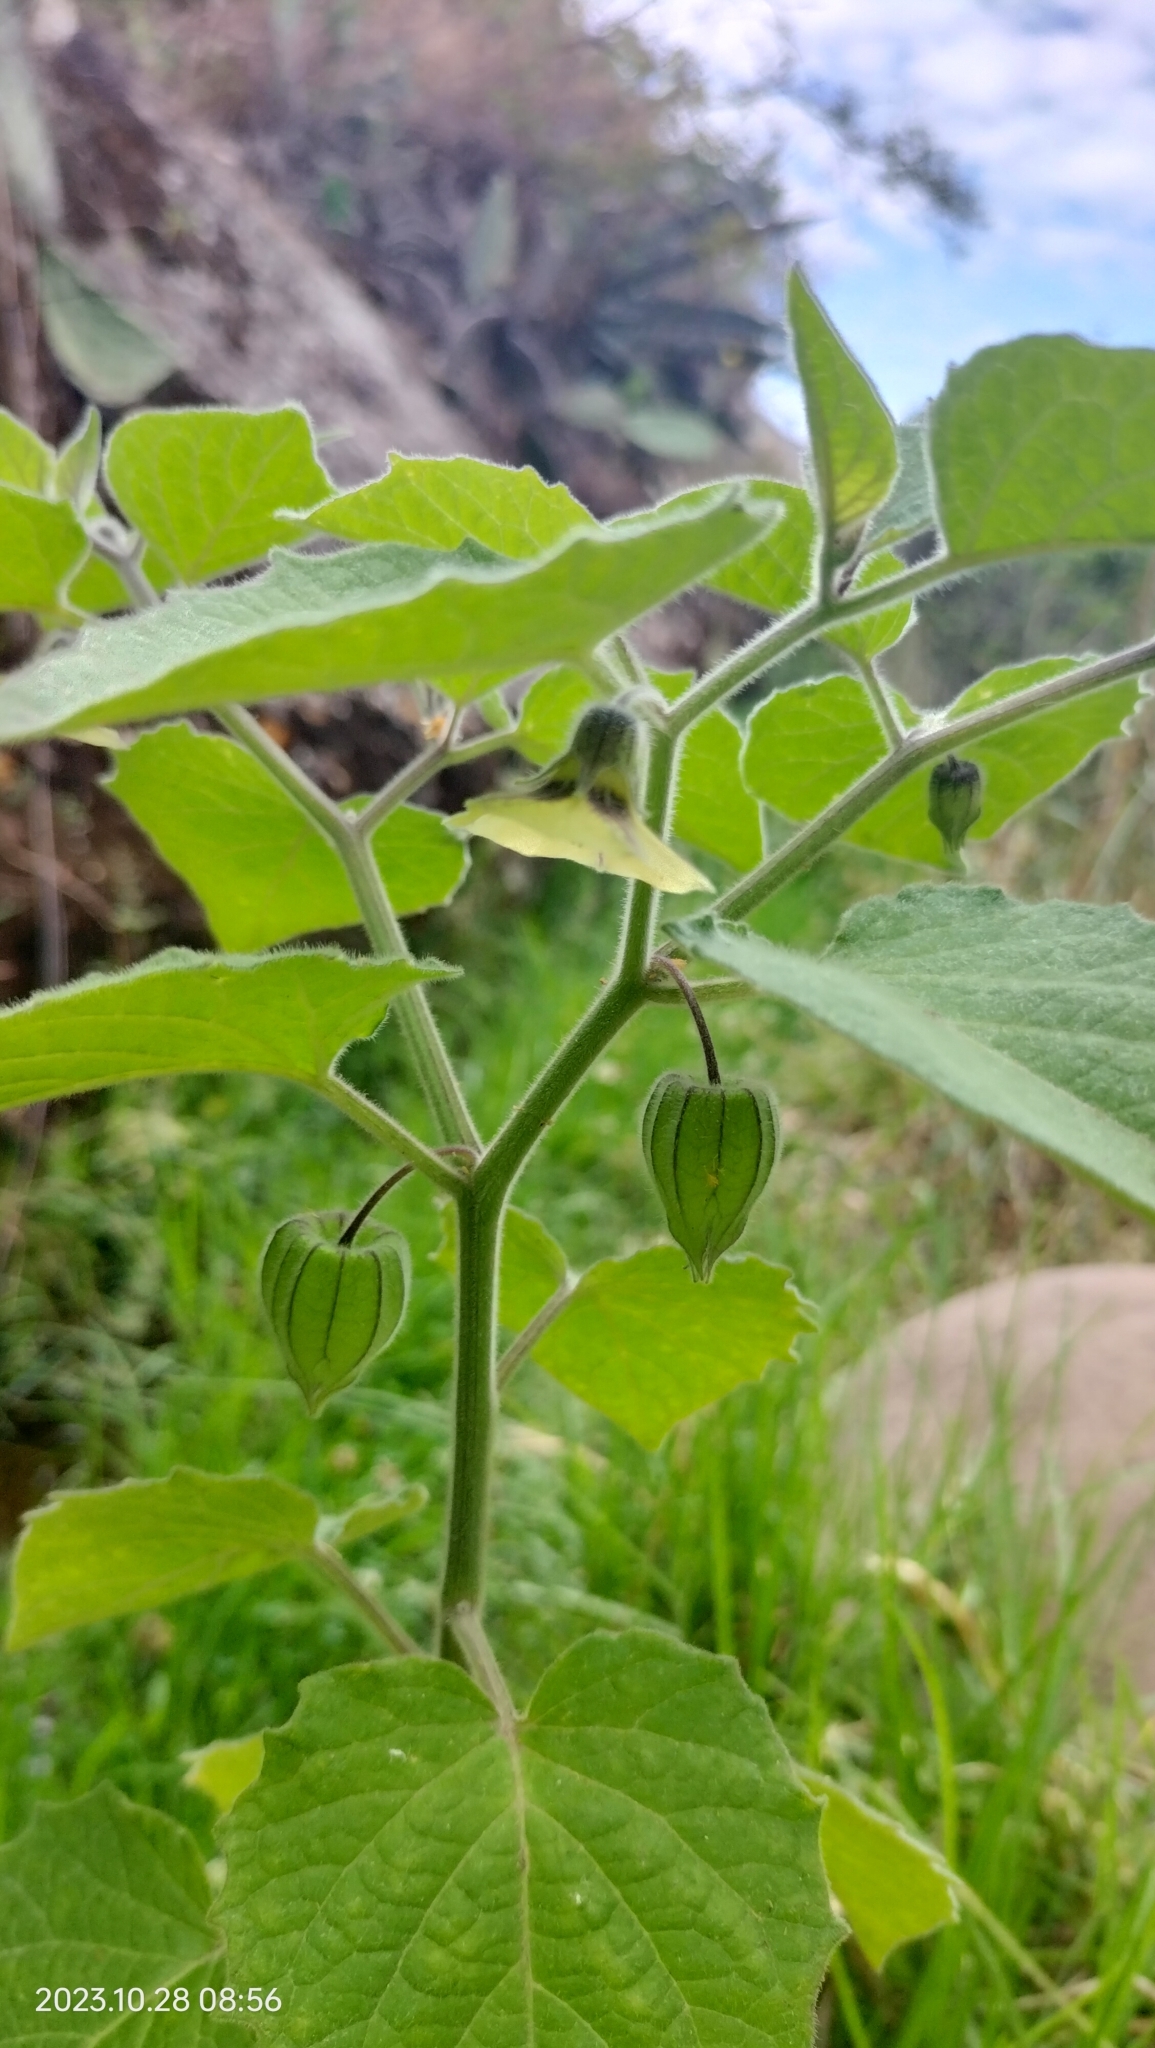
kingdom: Plantae
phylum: Tracheophyta
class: Magnoliopsida
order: Solanales
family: Solanaceae
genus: Physalis
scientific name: Physalis peruviana
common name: Cape-gooseberry
